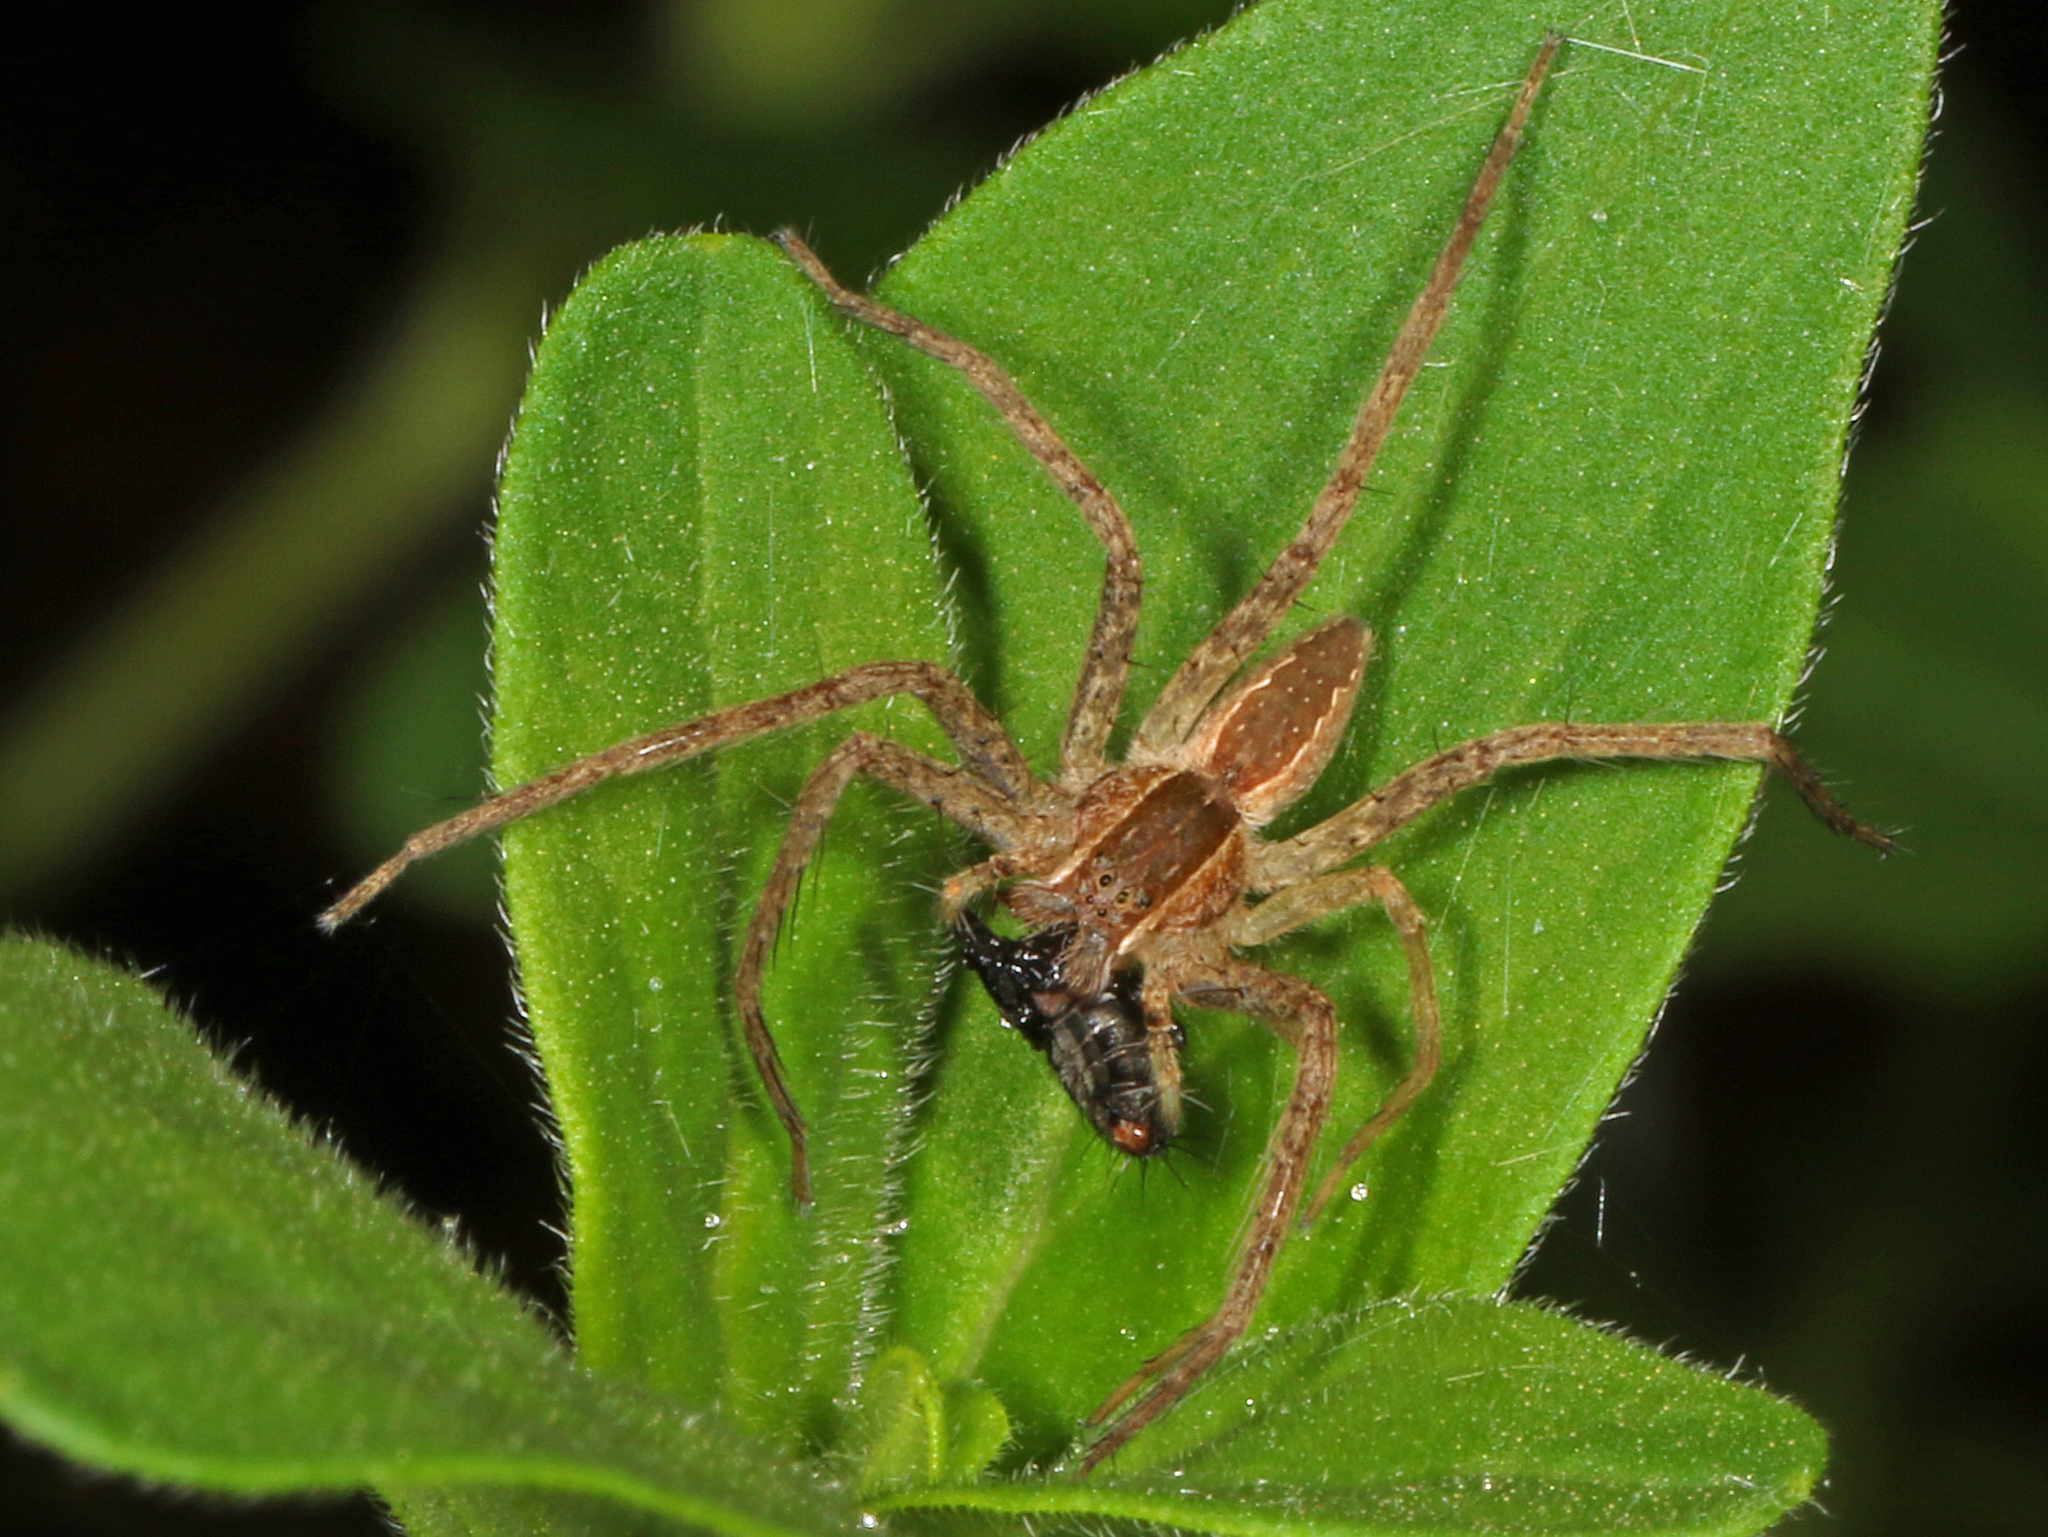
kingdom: Animalia
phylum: Arthropoda
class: Arachnida
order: Araneae
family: Pisauridae
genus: Pisaurina
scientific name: Pisaurina mira
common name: American nursery web spider
